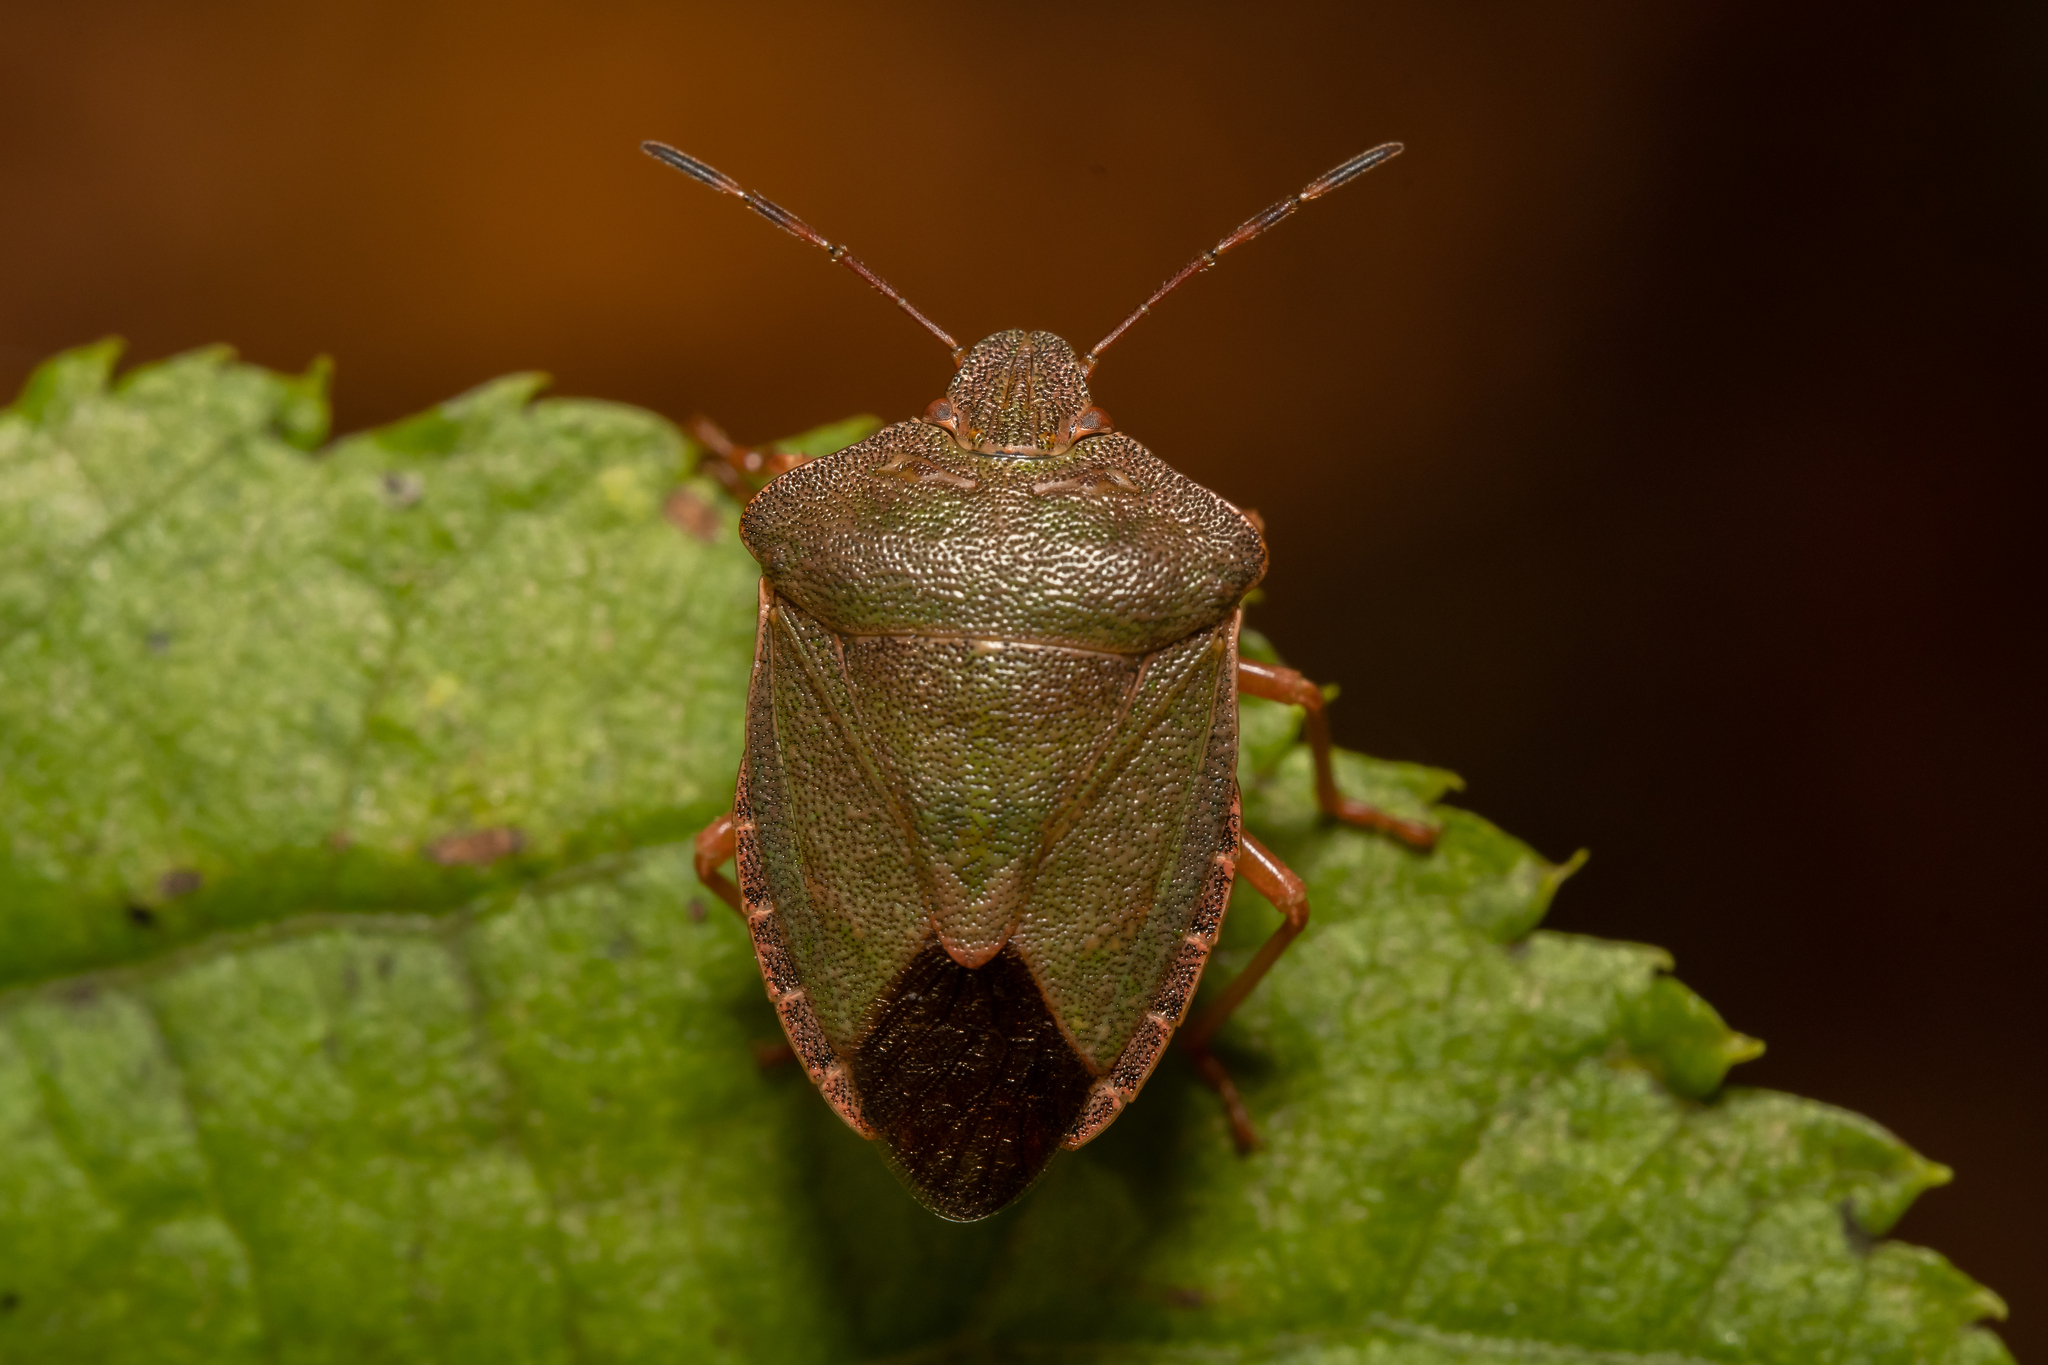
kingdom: Animalia
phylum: Arthropoda
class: Insecta
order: Hemiptera
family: Pentatomidae
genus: Palomena
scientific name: Palomena prasina
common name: Green shieldbug
